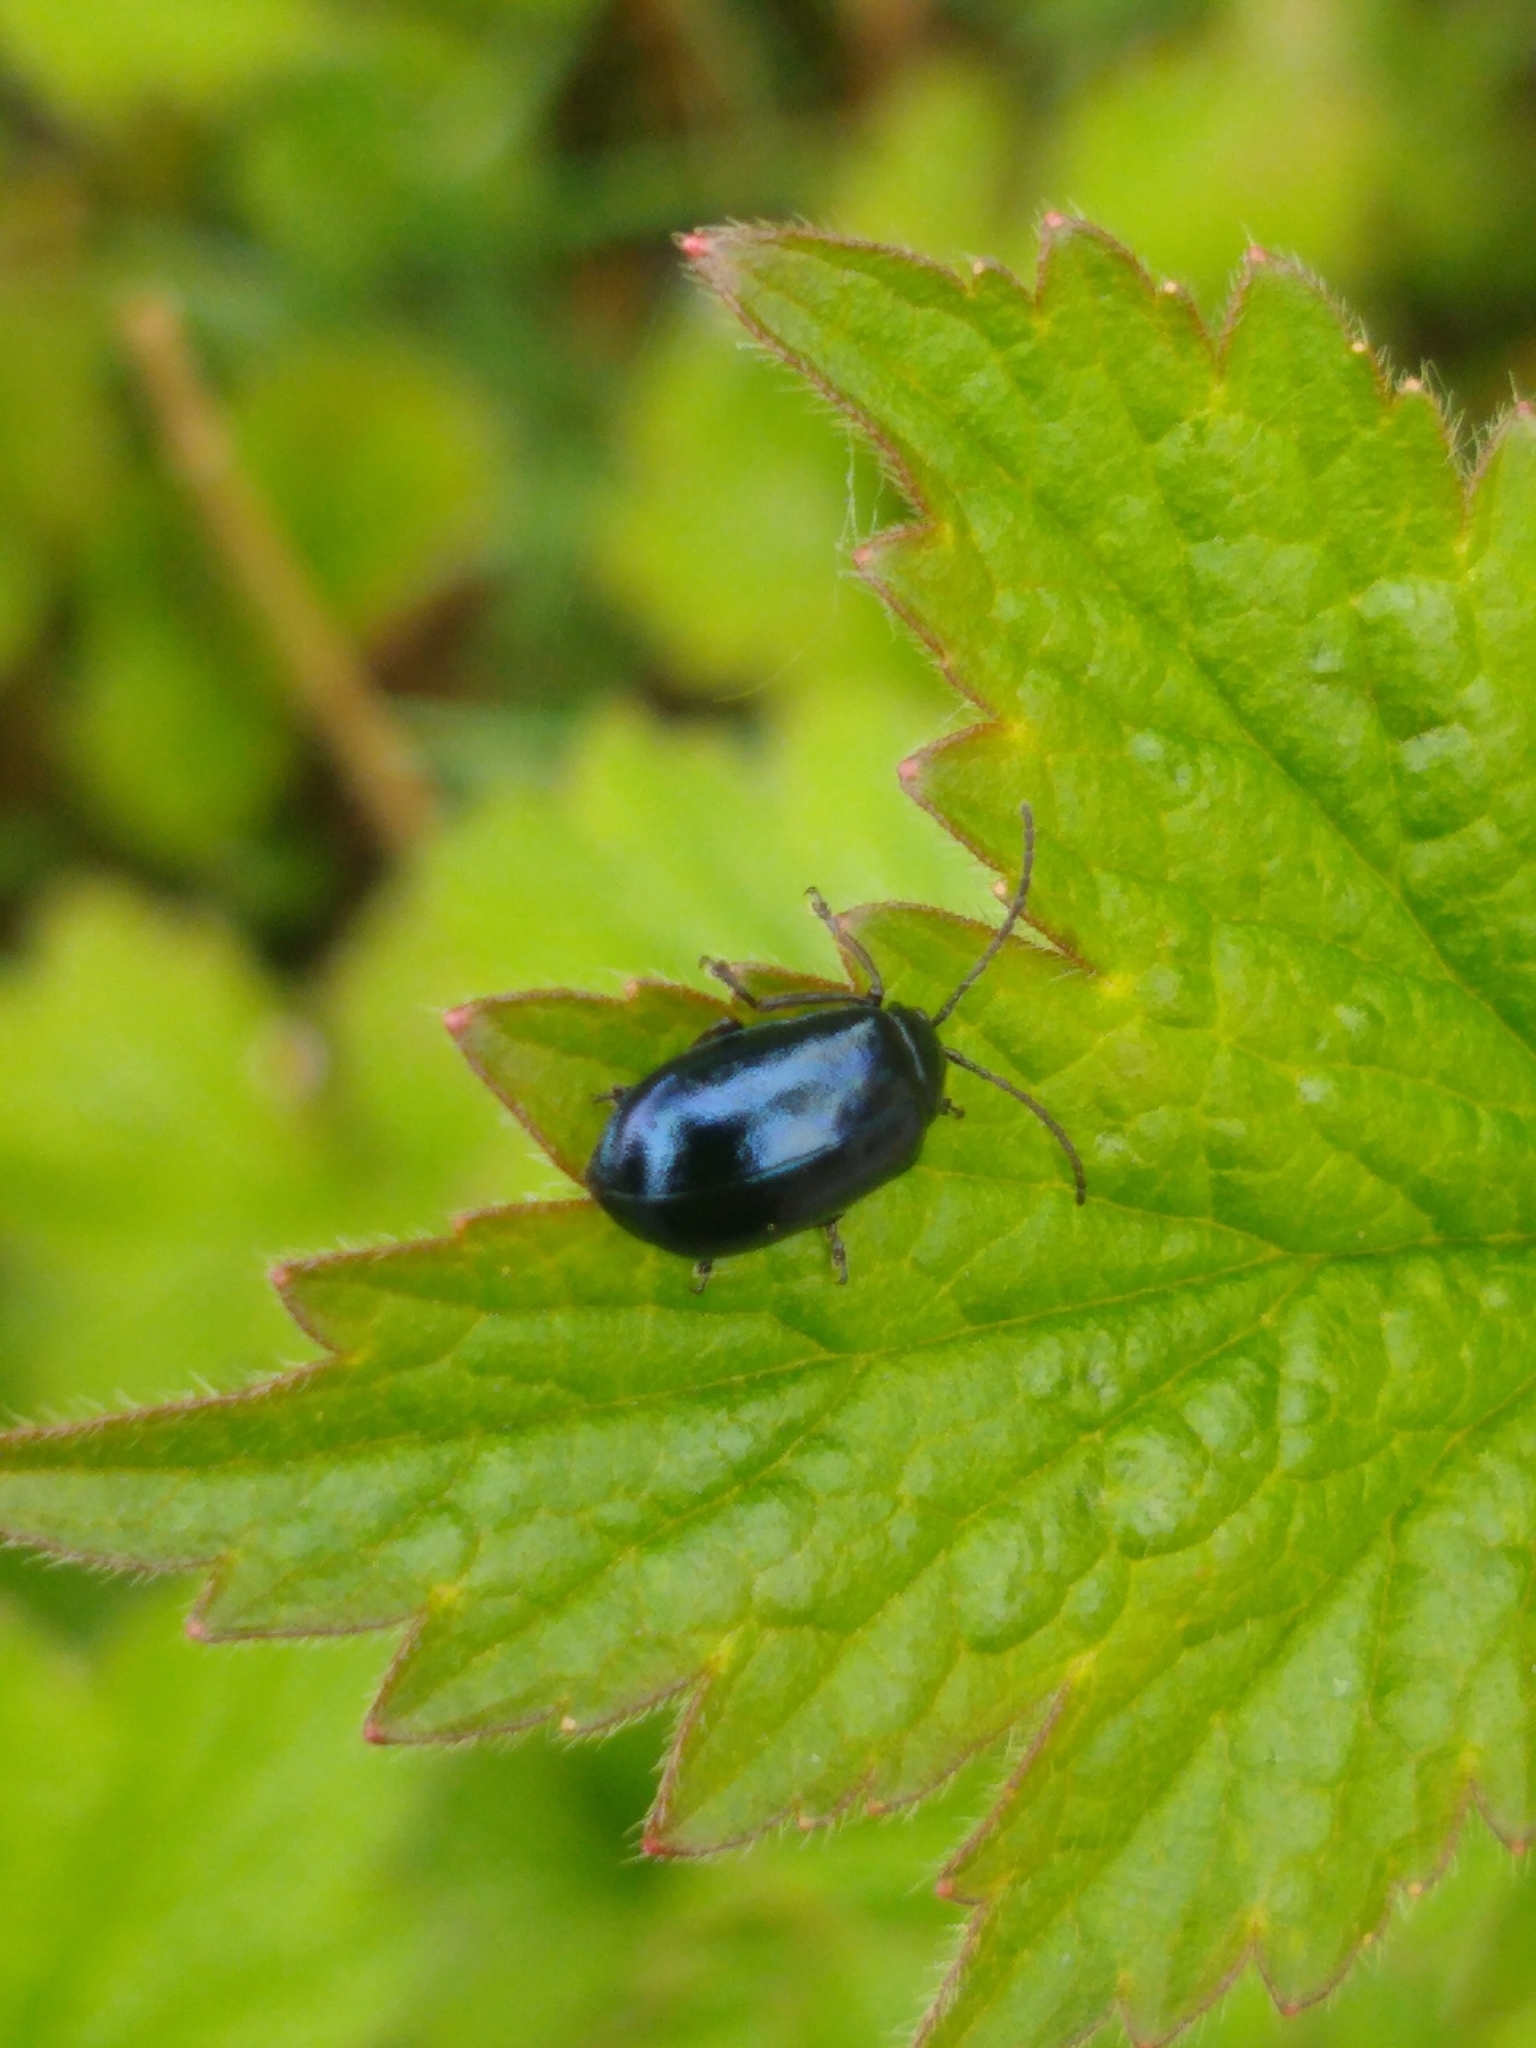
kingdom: Animalia
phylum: Arthropoda
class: Insecta
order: Coleoptera
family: Chrysomelidae
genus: Agelastica
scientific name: Agelastica alni
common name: Alder leaf beetle
